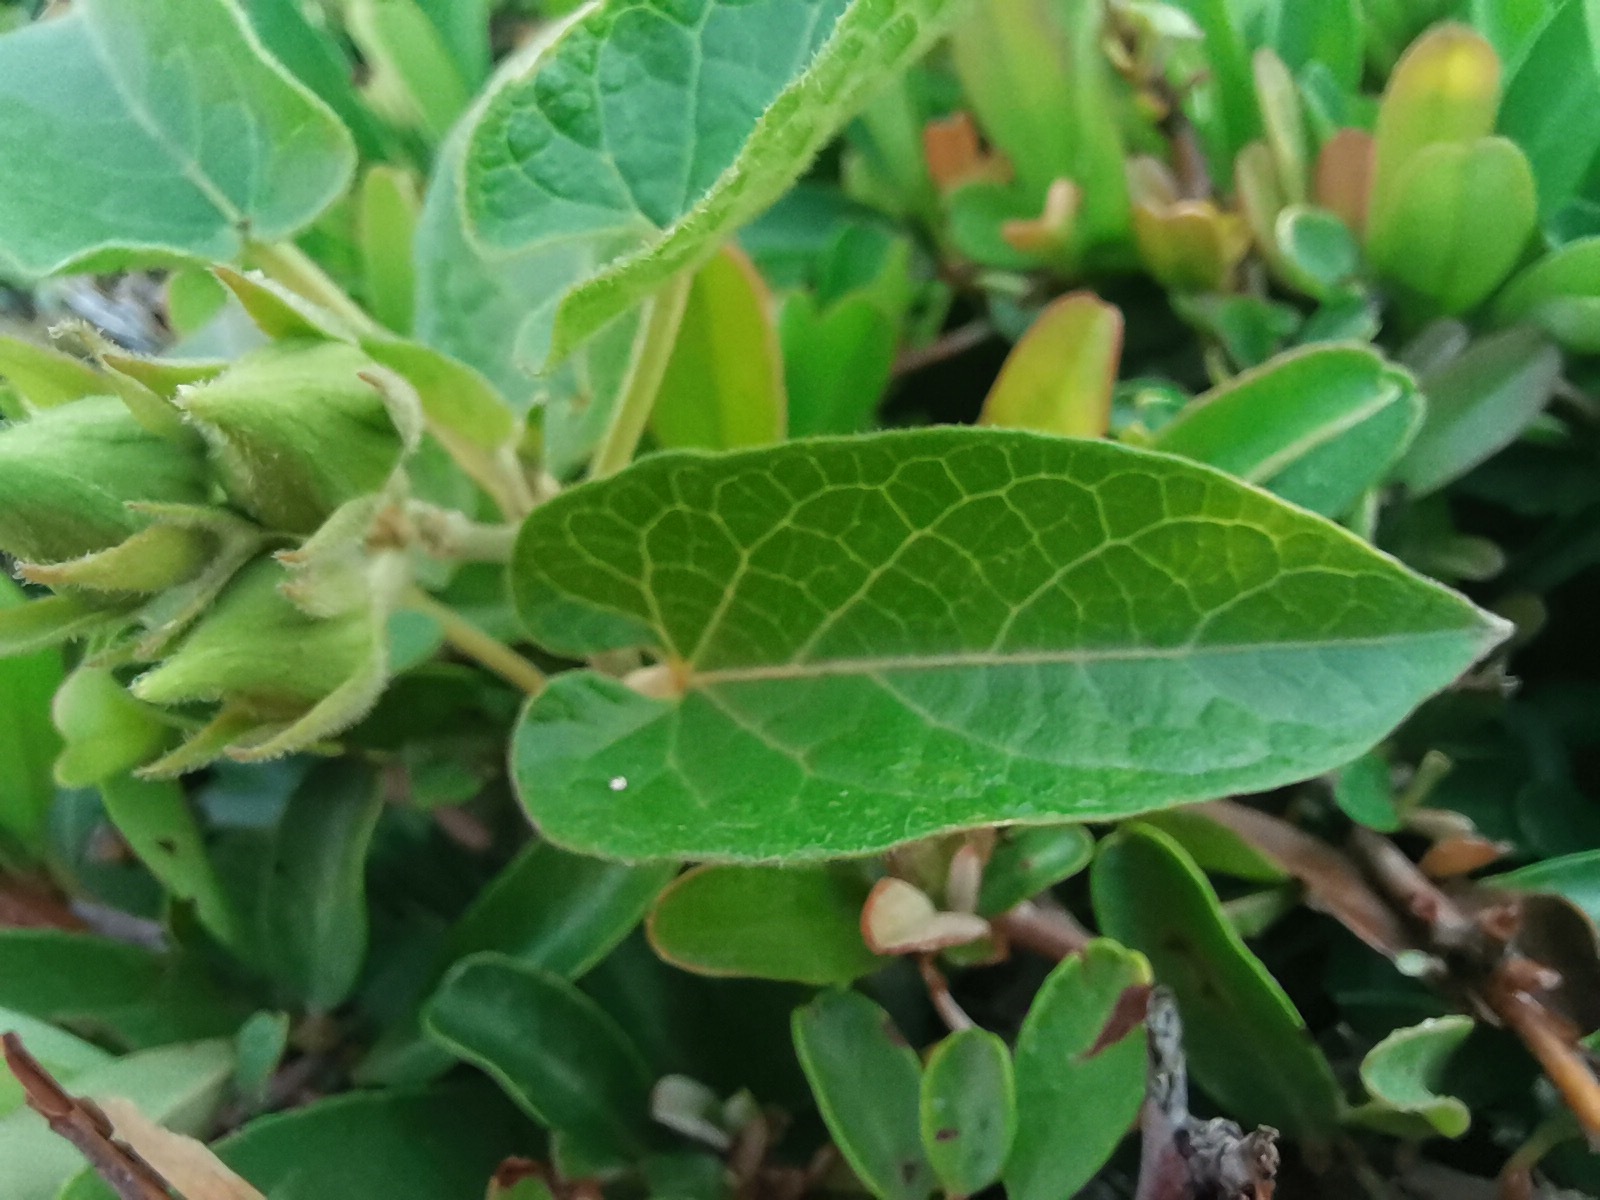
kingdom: Plantae
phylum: Tracheophyta
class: Magnoliopsida
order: Gentianales
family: Apocynaceae
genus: Gonolobus
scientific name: Gonolobus grandiflorus
